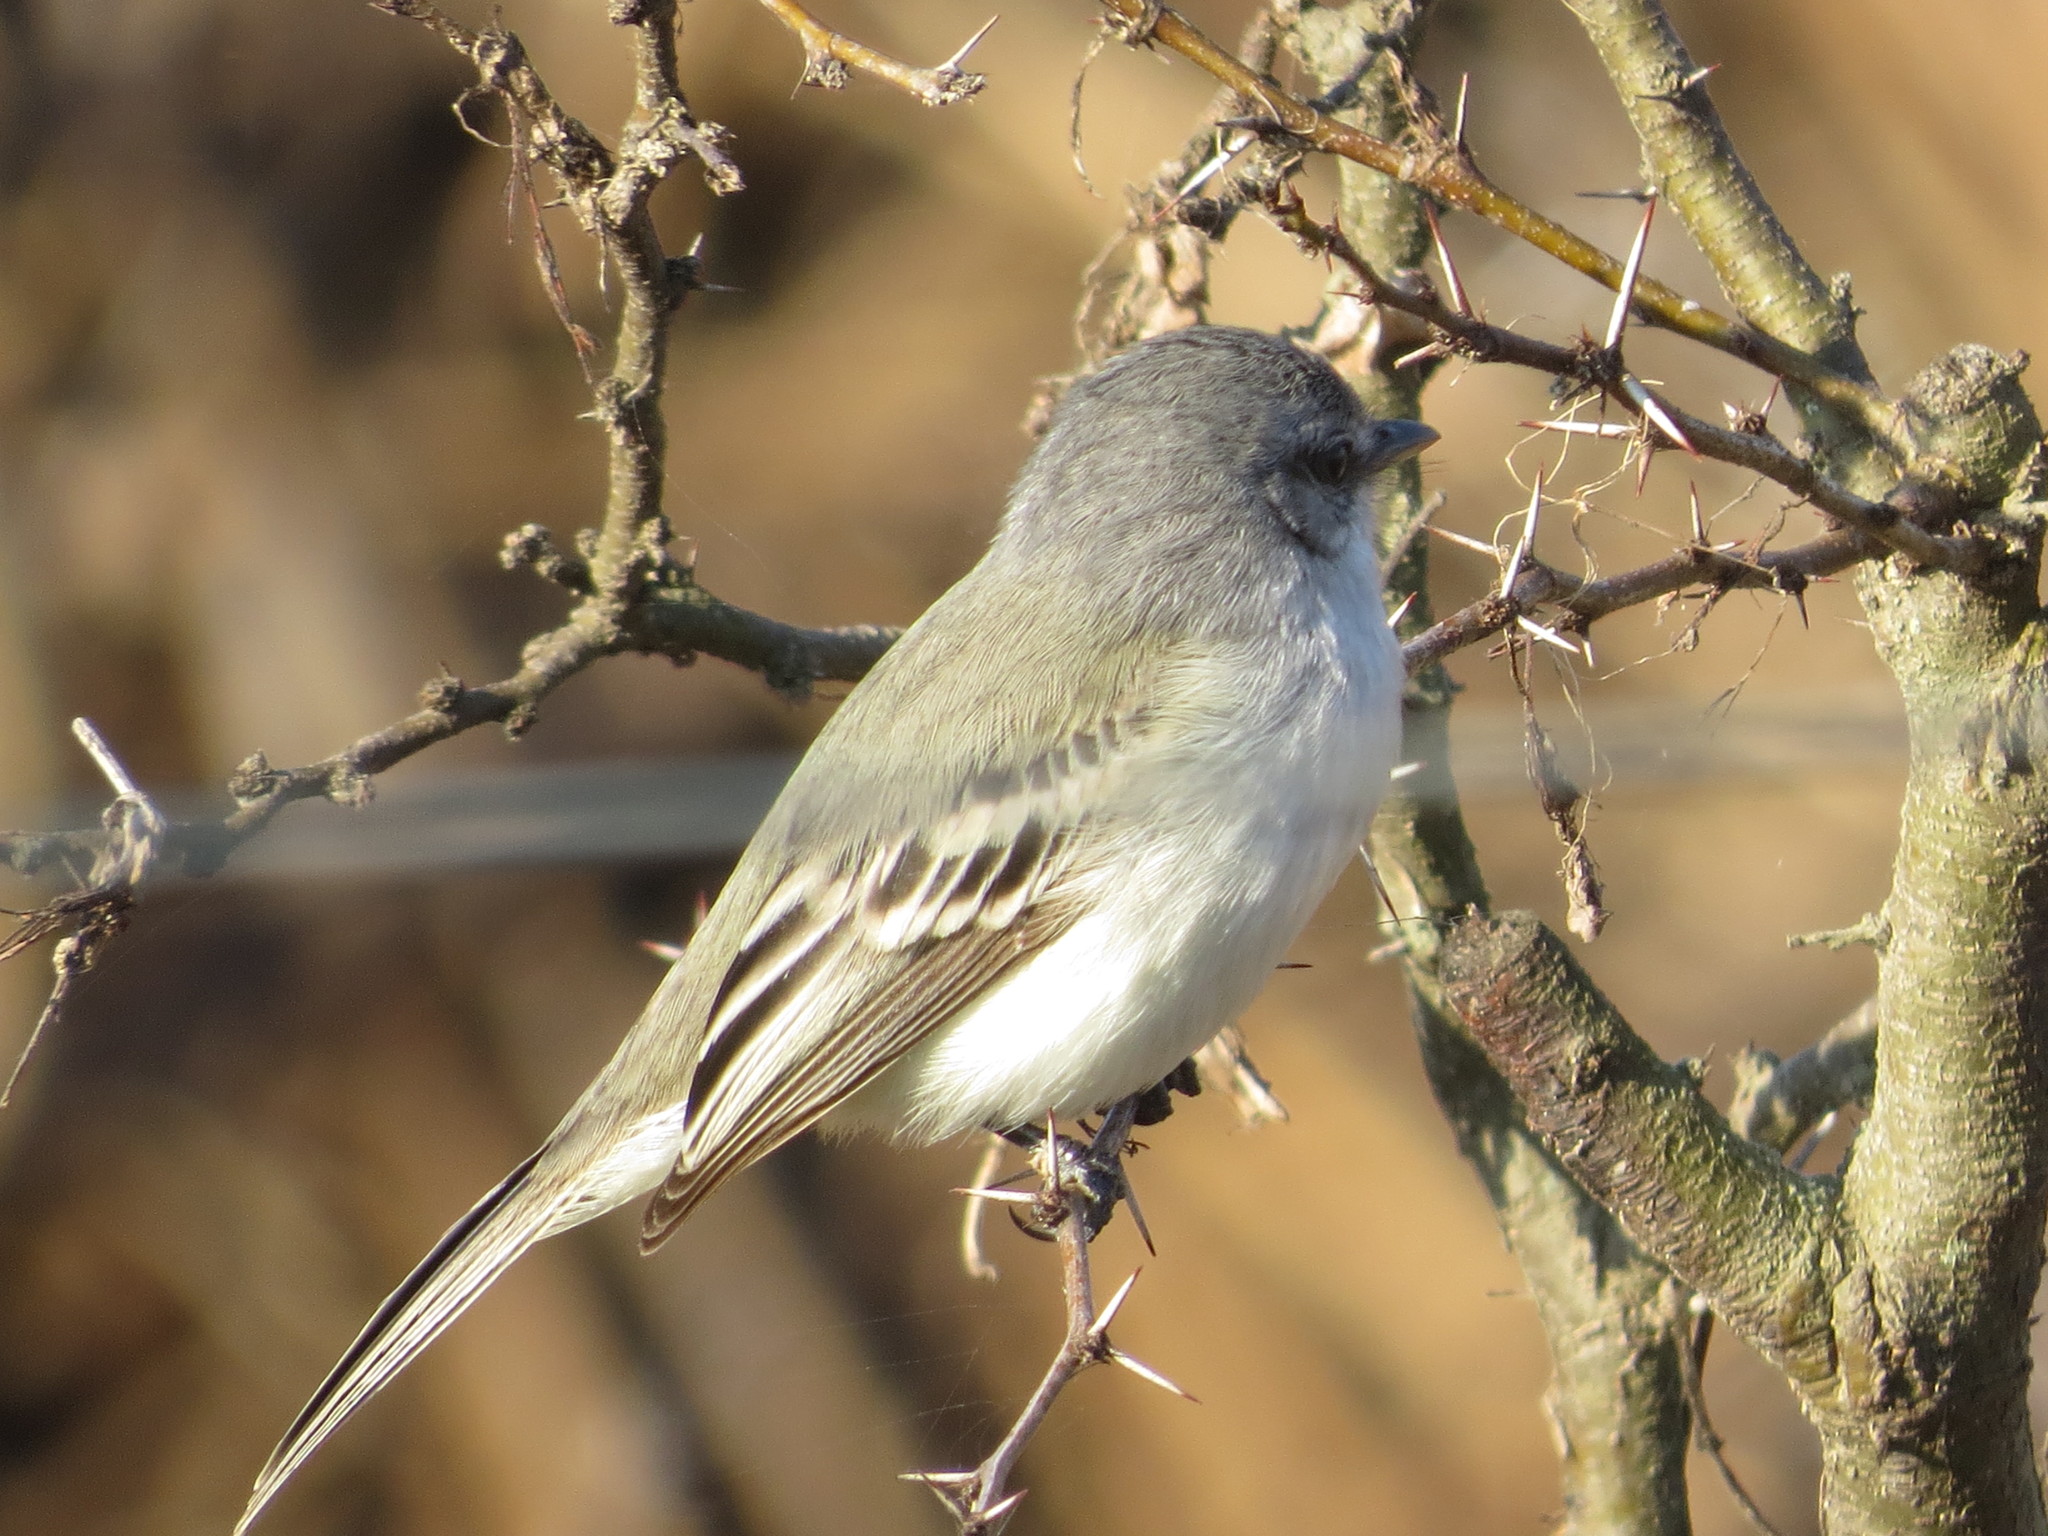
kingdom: Animalia
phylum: Chordata
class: Aves
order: Passeriformes
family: Tyrannidae
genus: Suiriri
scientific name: Suiriri suiriri
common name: Suiriri flycatcher
